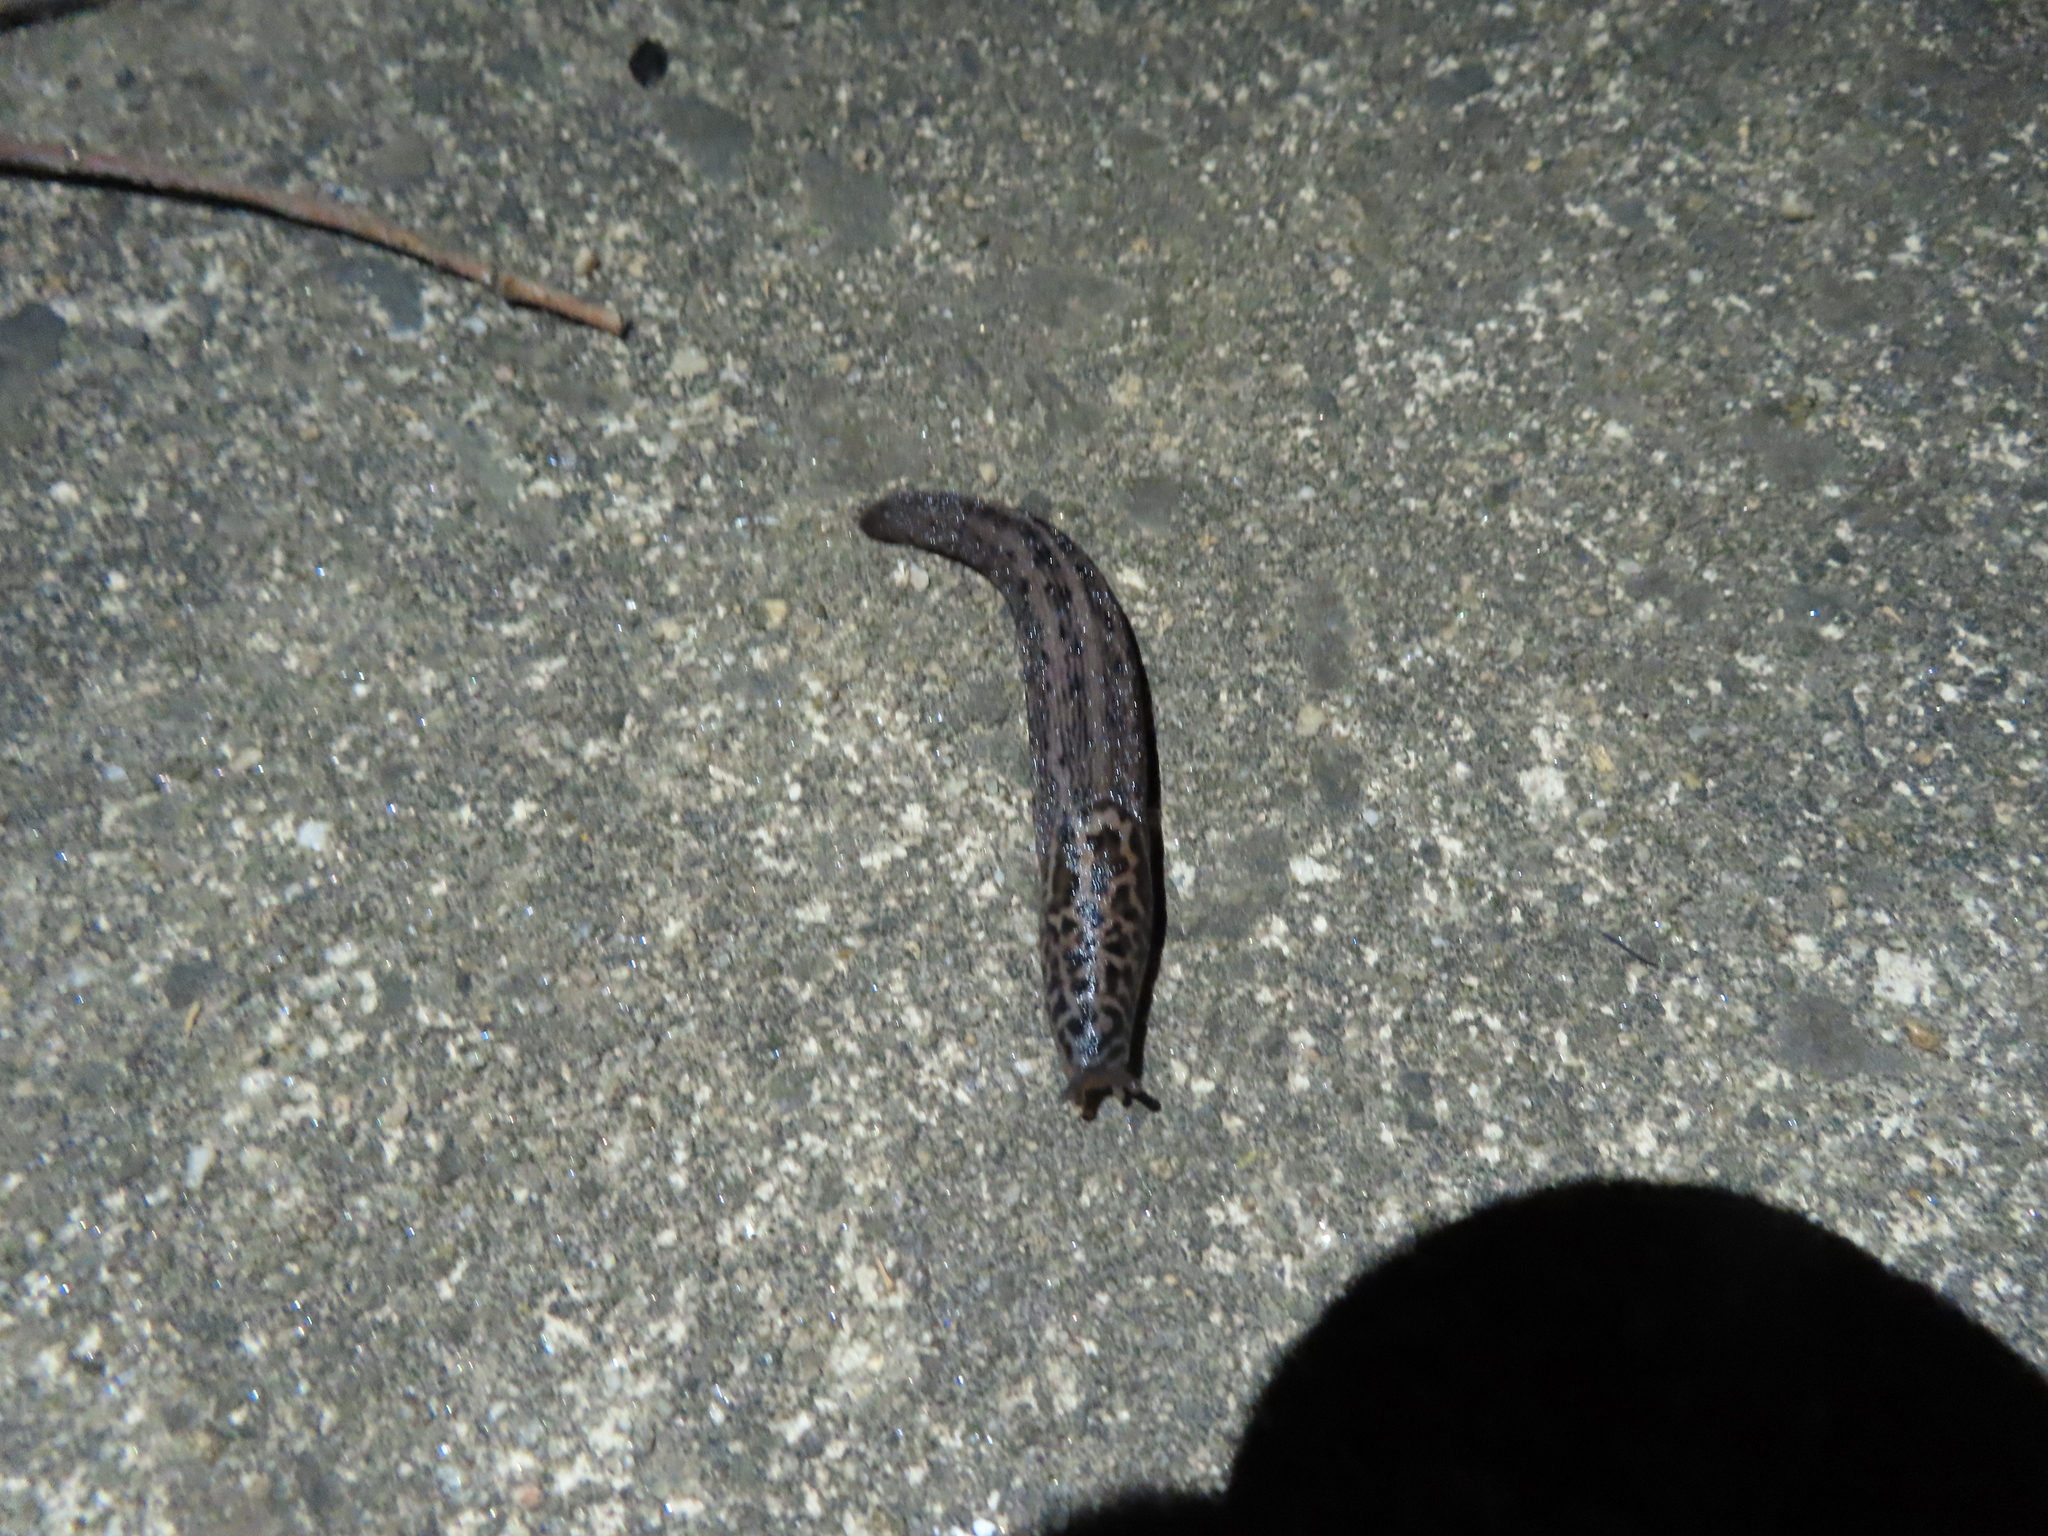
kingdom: Animalia
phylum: Mollusca
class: Gastropoda
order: Stylommatophora
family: Limacidae
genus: Limax
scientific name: Limax maximus
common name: Great grey slug
